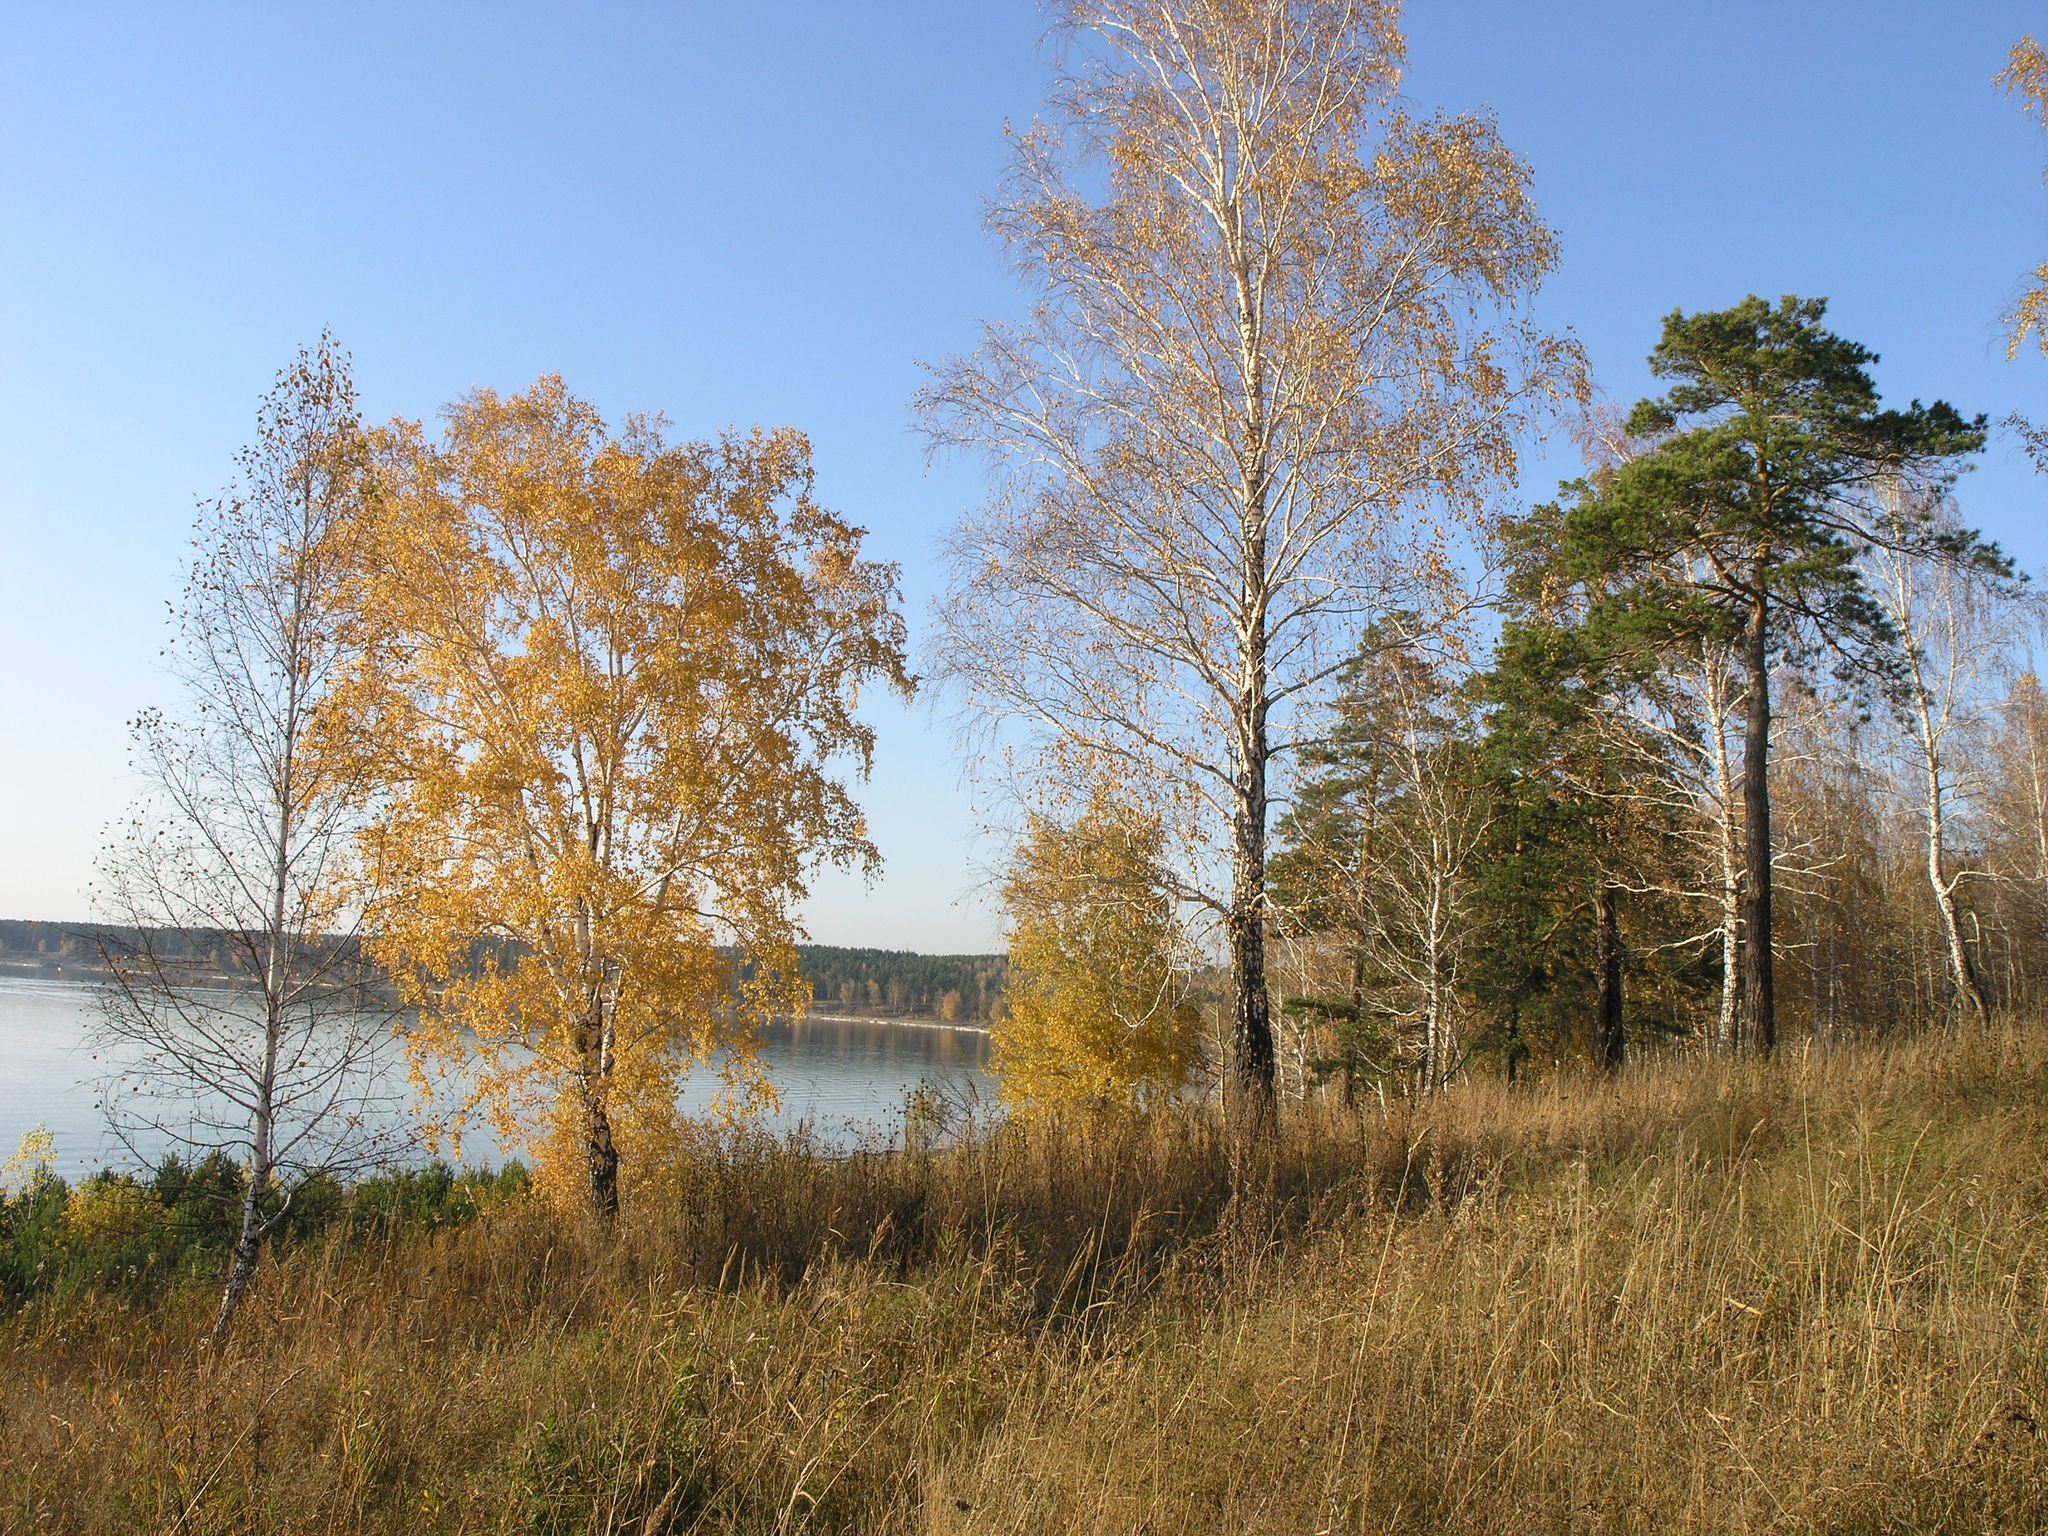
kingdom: Plantae
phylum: Tracheophyta
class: Magnoliopsida
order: Fagales
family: Betulaceae
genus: Betula
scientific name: Betula pendula
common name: Silver birch
